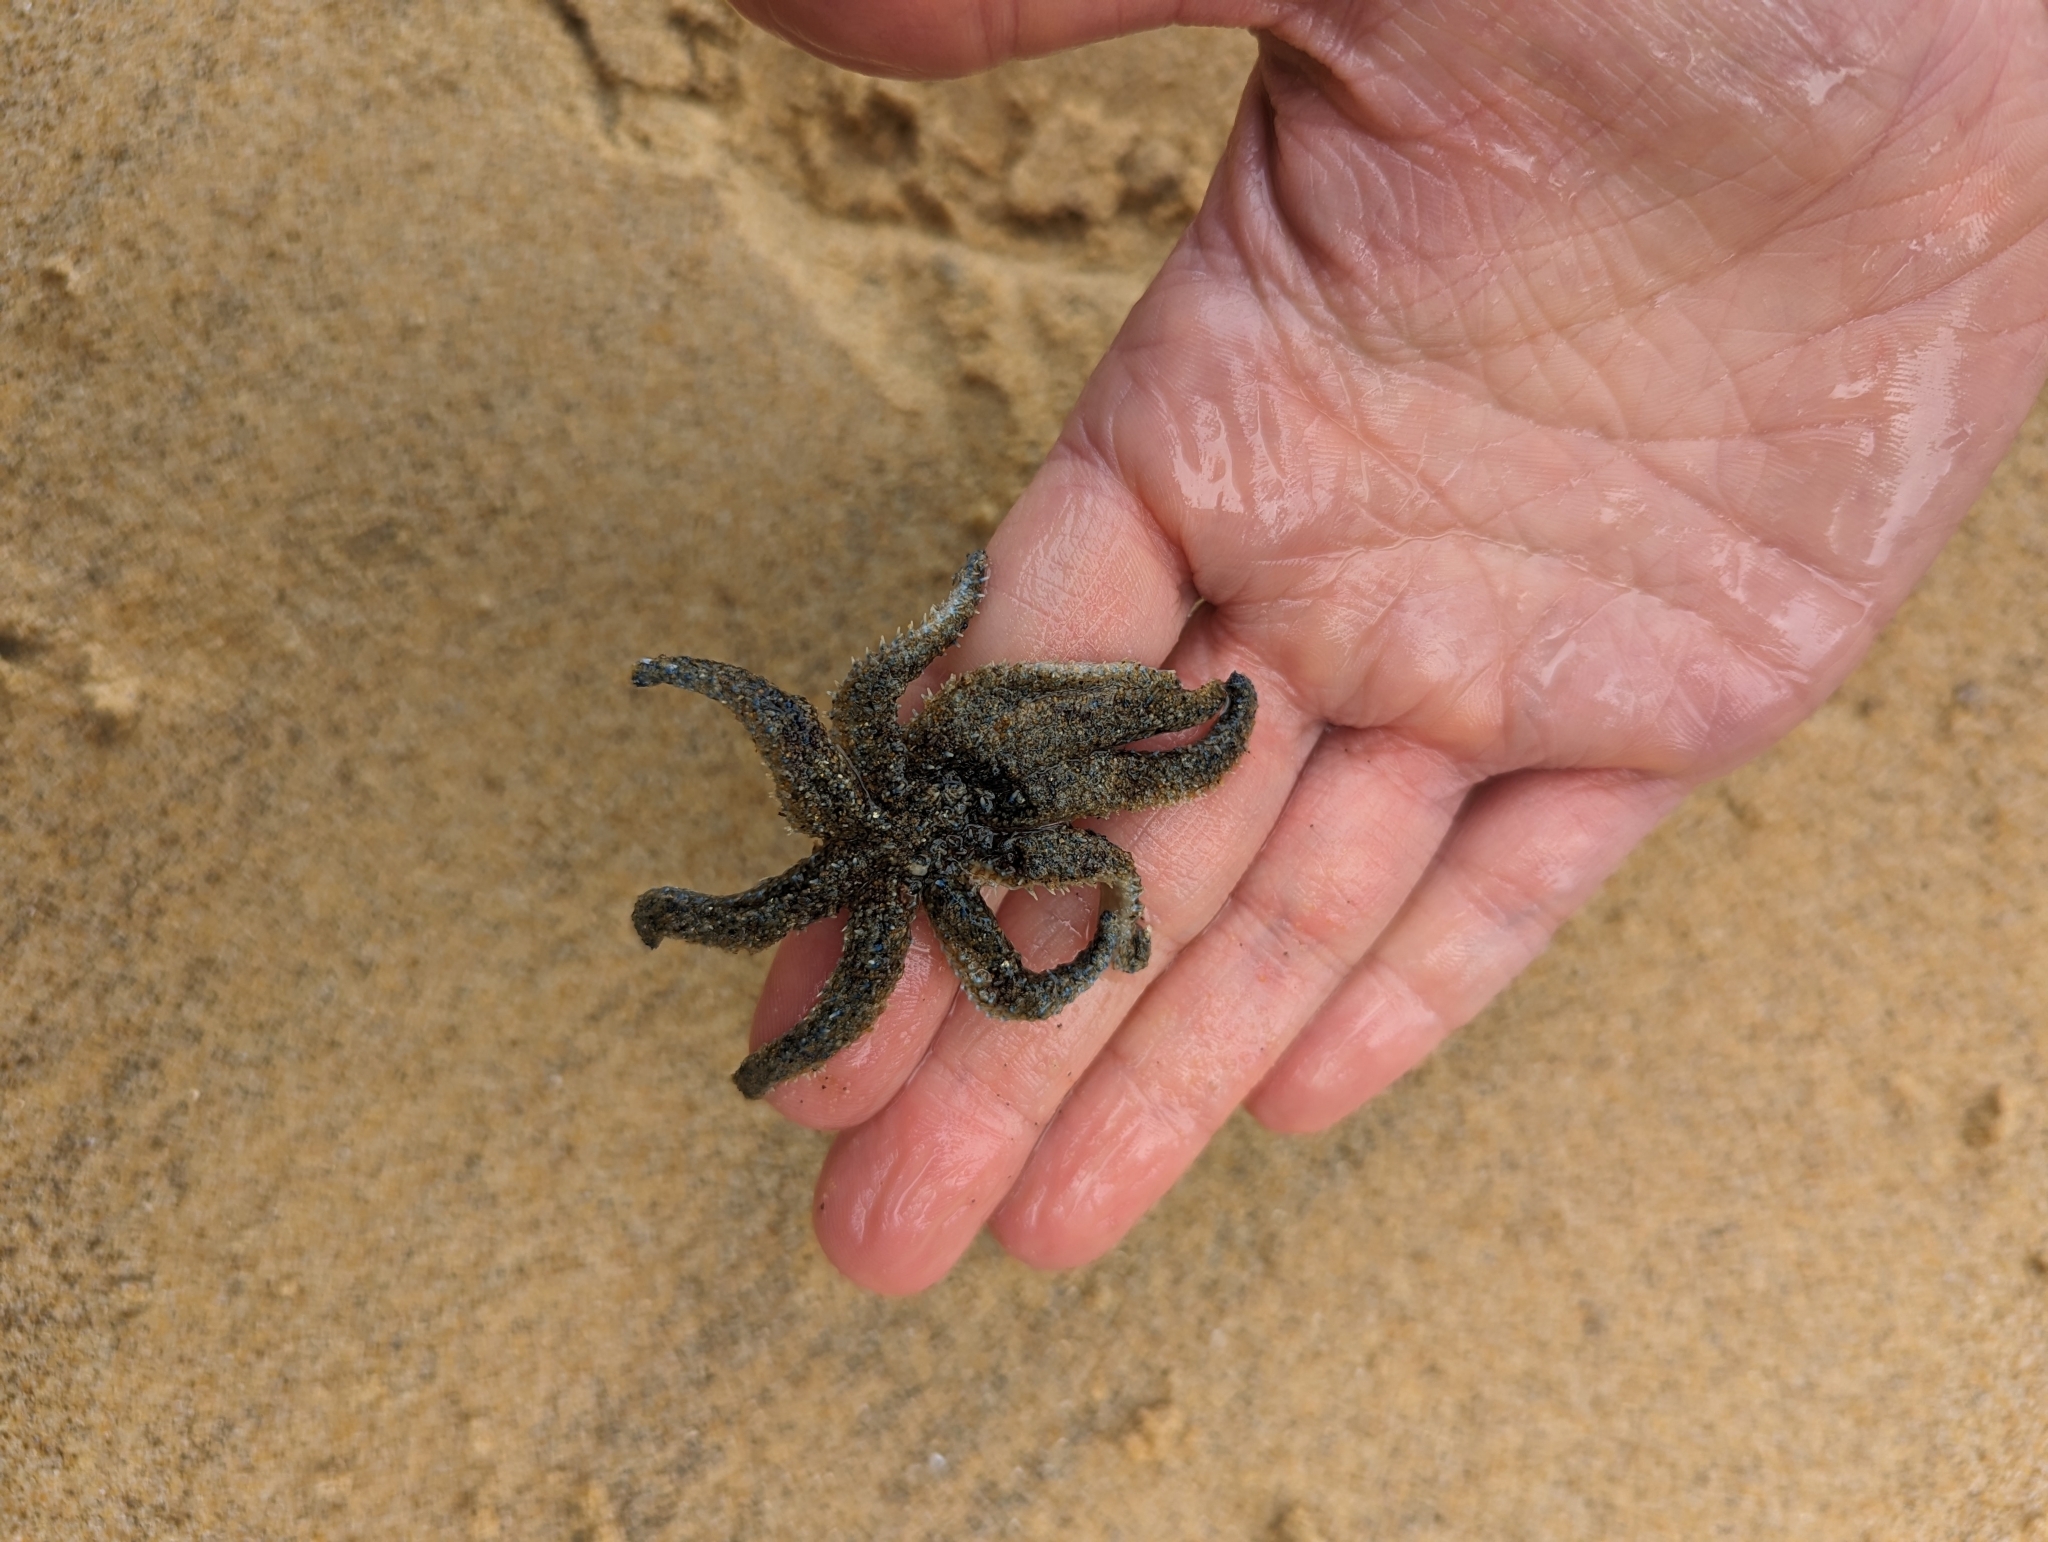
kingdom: Animalia
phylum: Echinodermata
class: Asteroidea
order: Forcipulatida
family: Asteriidae
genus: Coscinasterias
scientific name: Coscinasterias muricata
